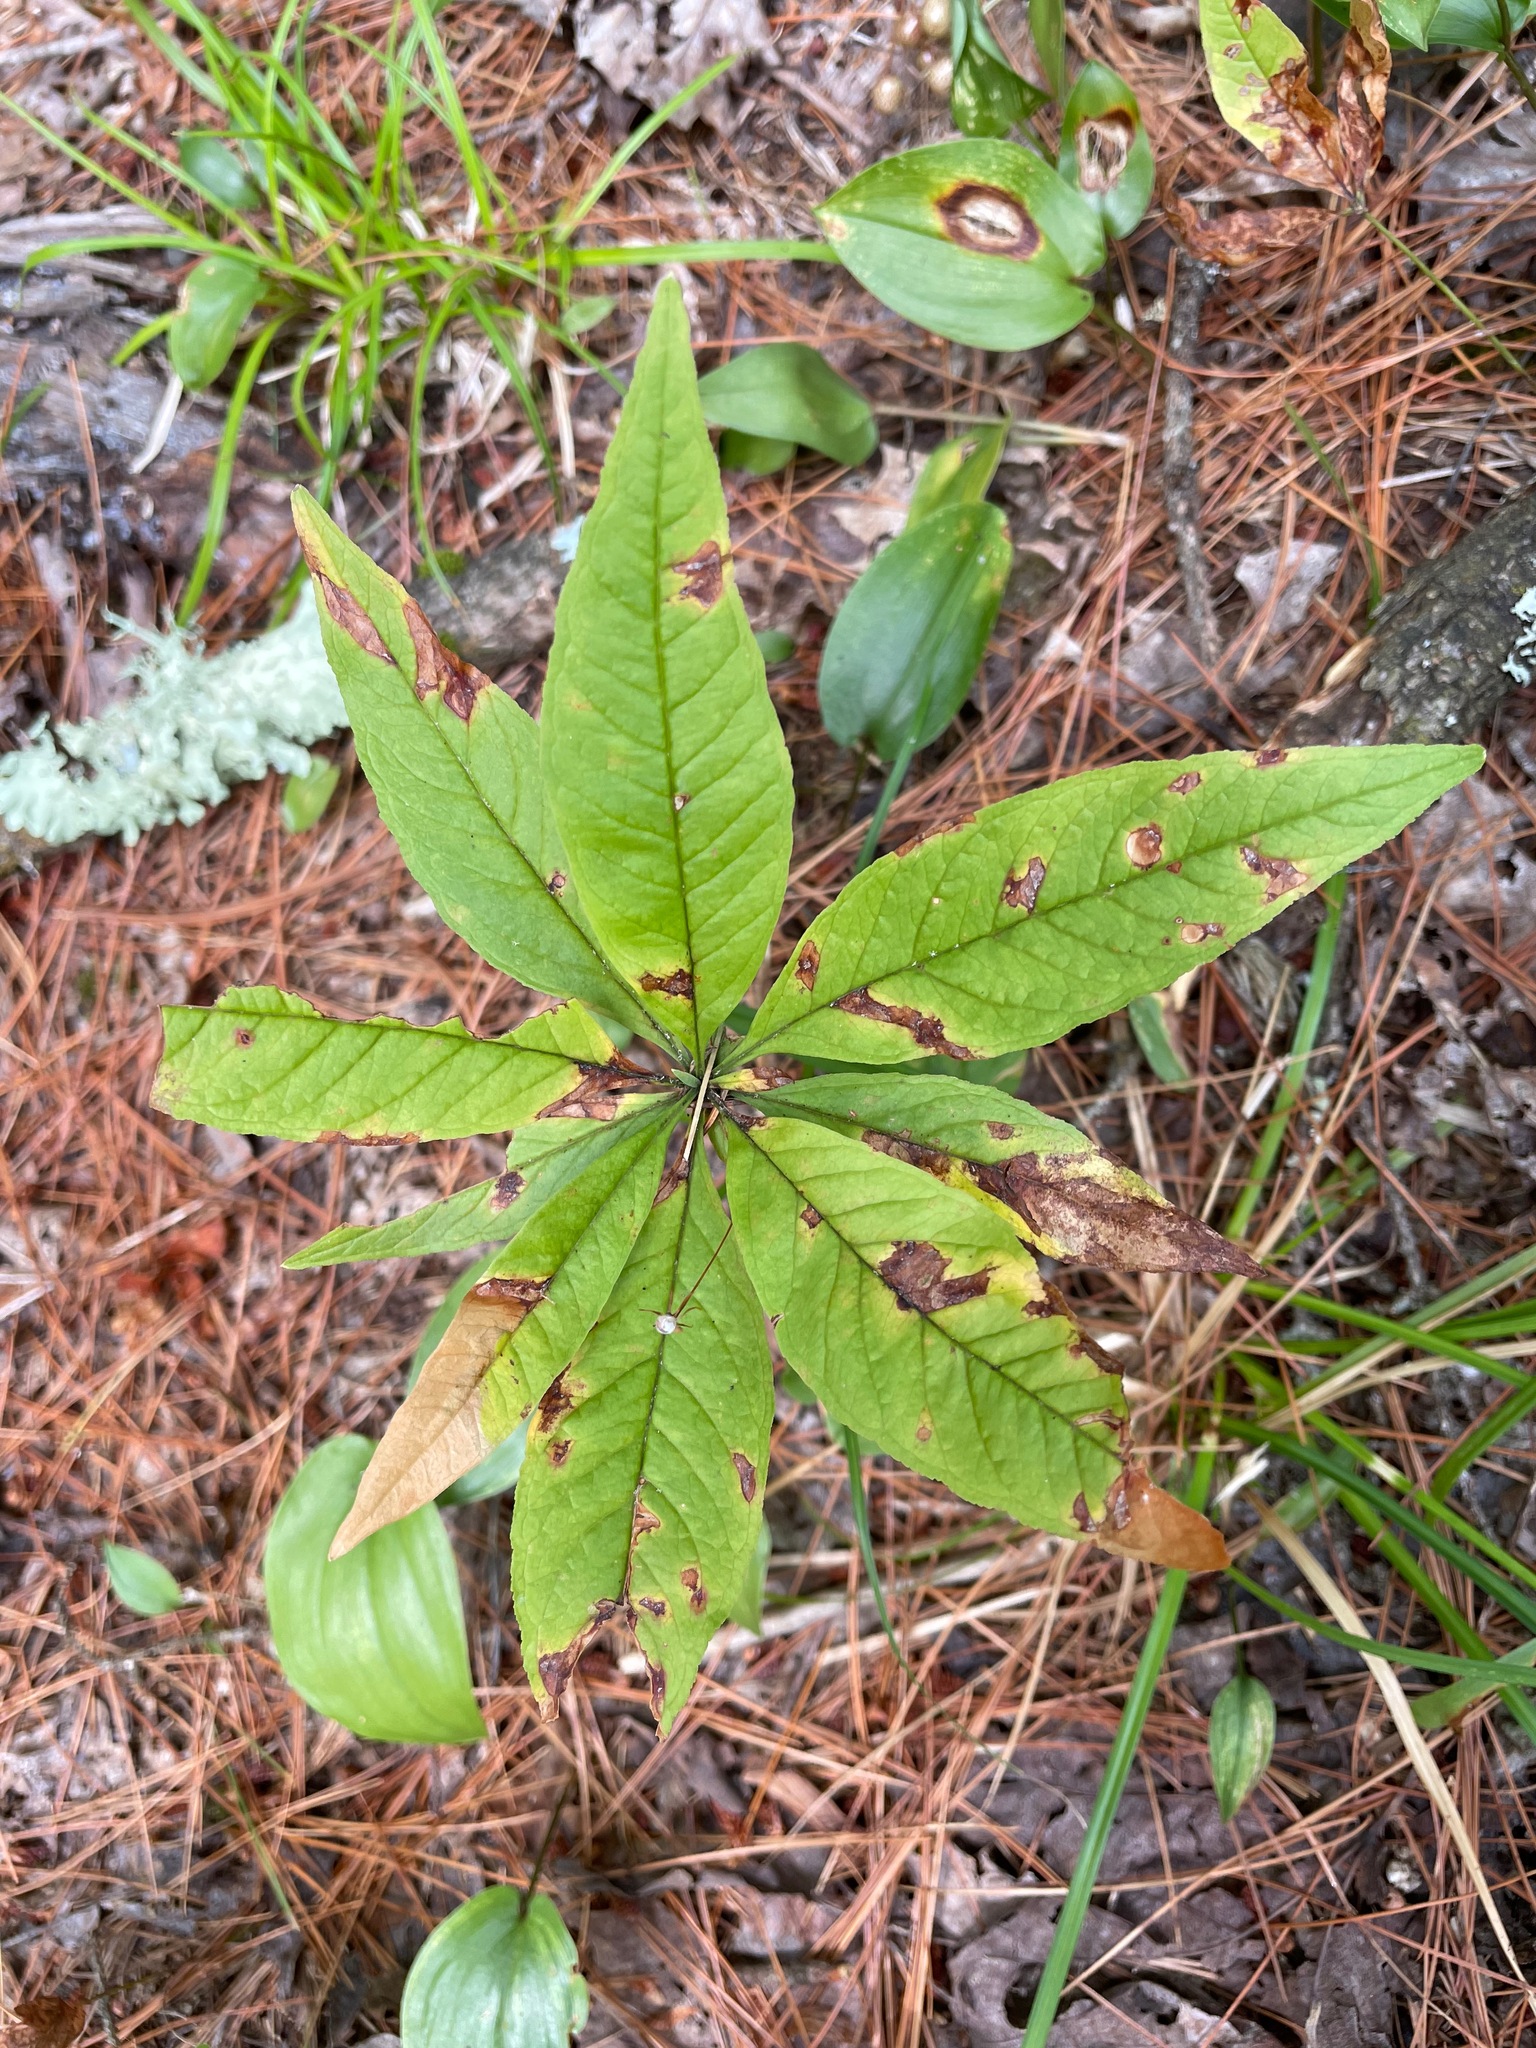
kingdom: Plantae
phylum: Tracheophyta
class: Magnoliopsida
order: Ericales
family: Primulaceae
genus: Lysimachia
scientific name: Lysimachia borealis
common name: American starflower
